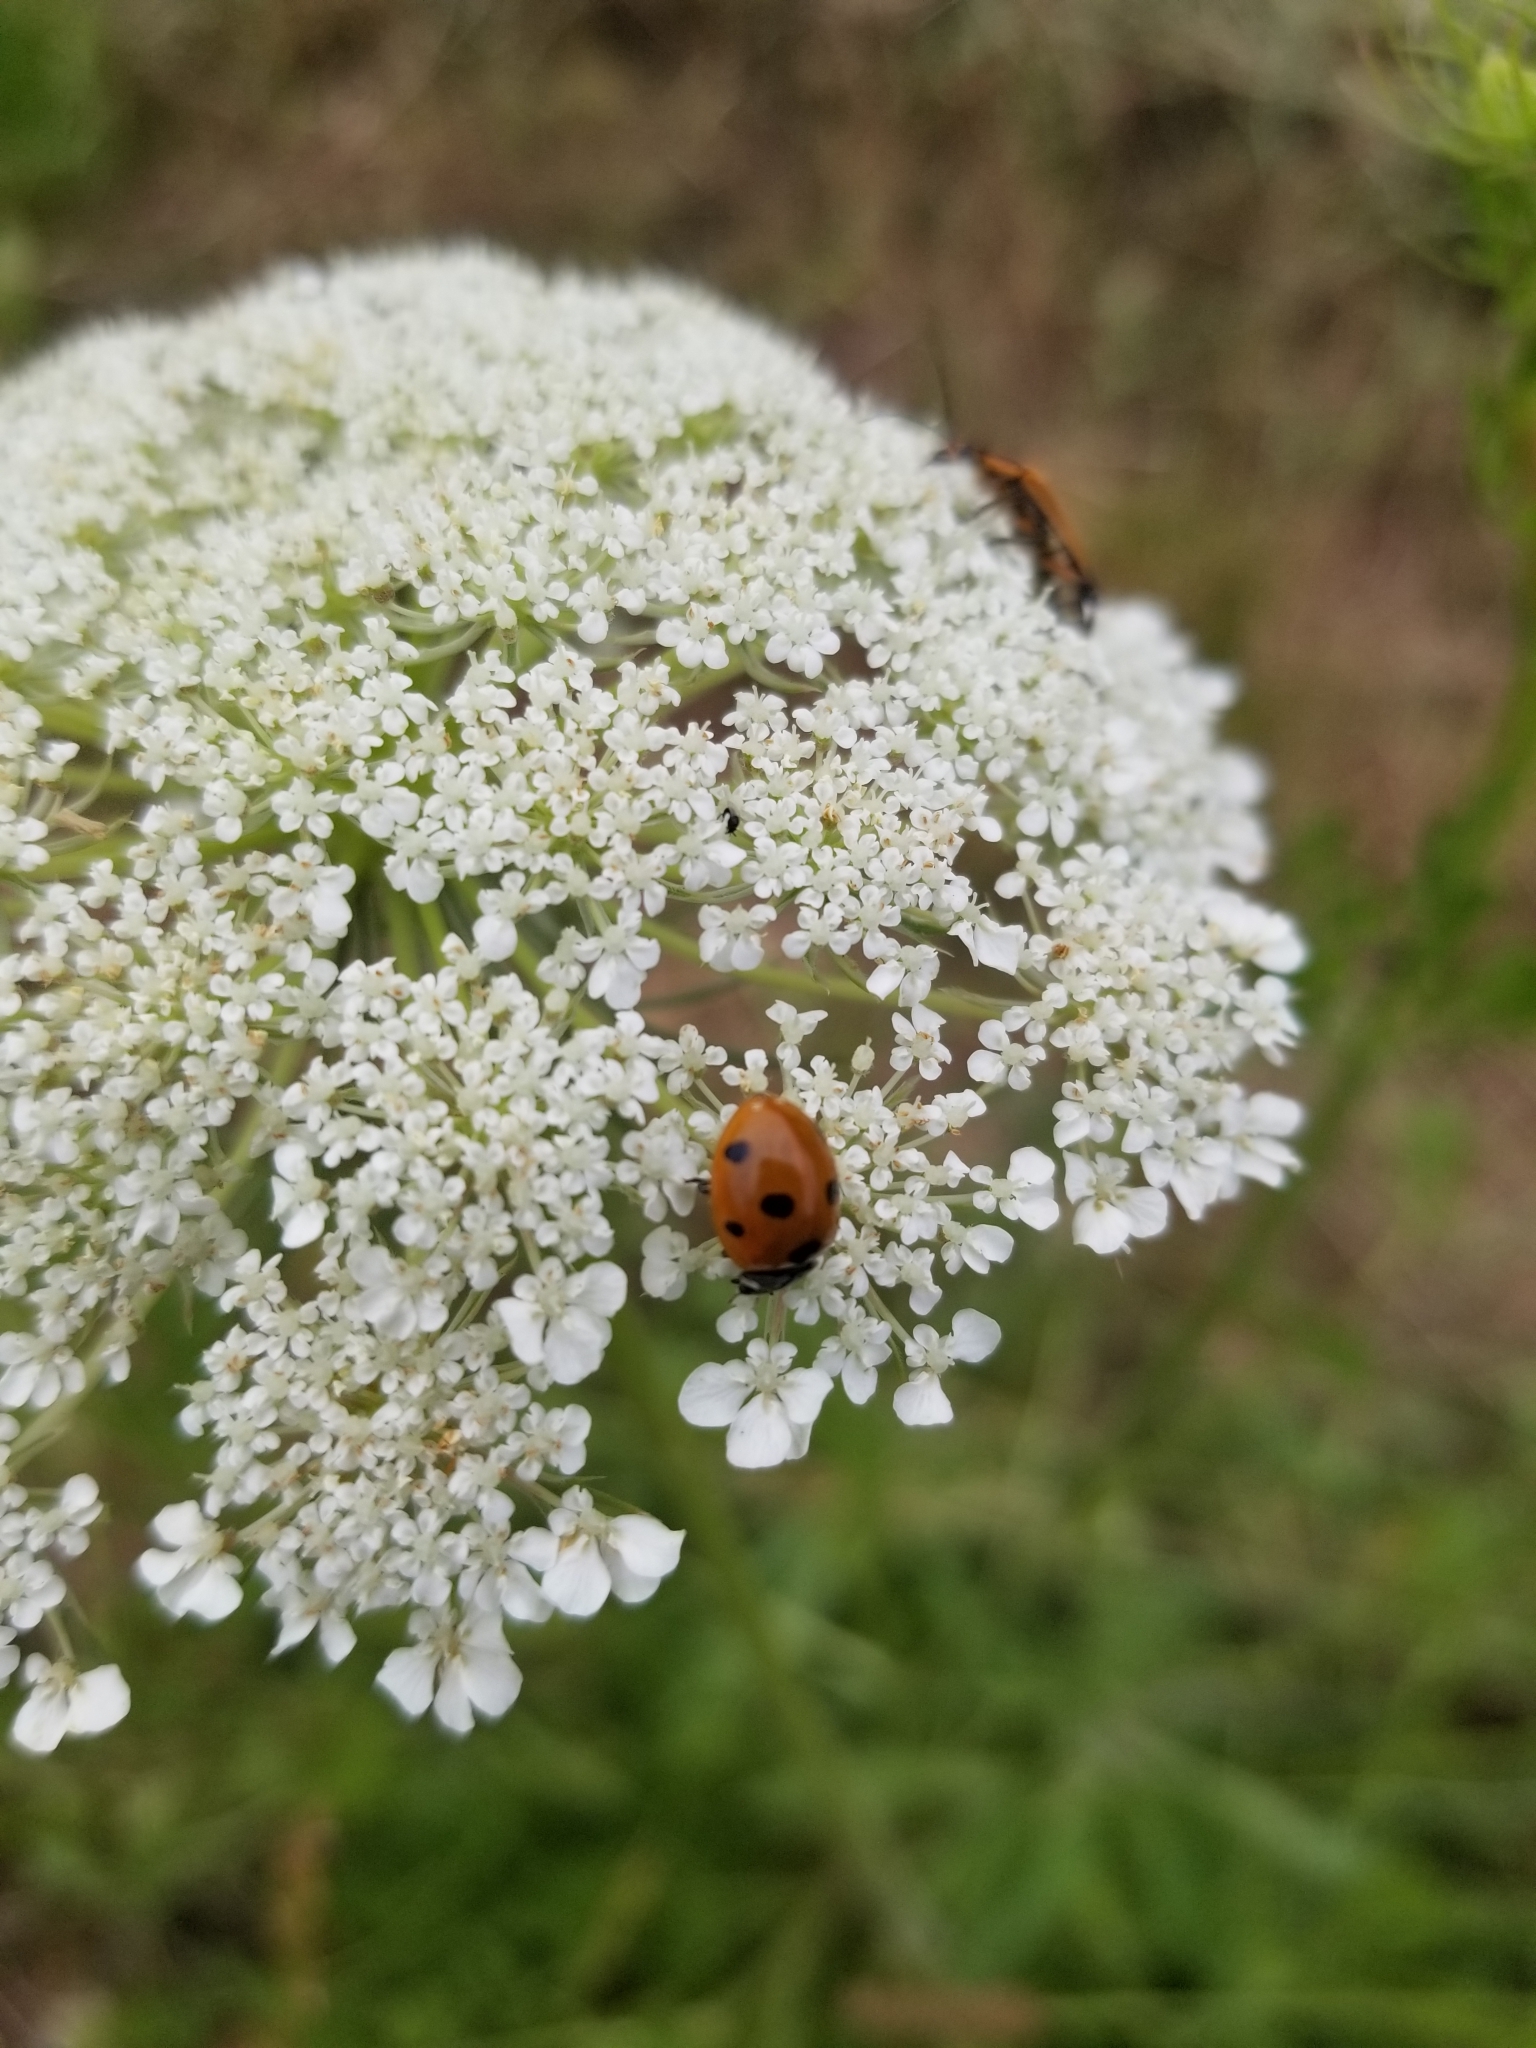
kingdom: Animalia
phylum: Arthropoda
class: Insecta
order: Coleoptera
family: Coccinellidae
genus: Coccinella
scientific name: Coccinella septempunctata
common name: Sevenspotted lady beetle
